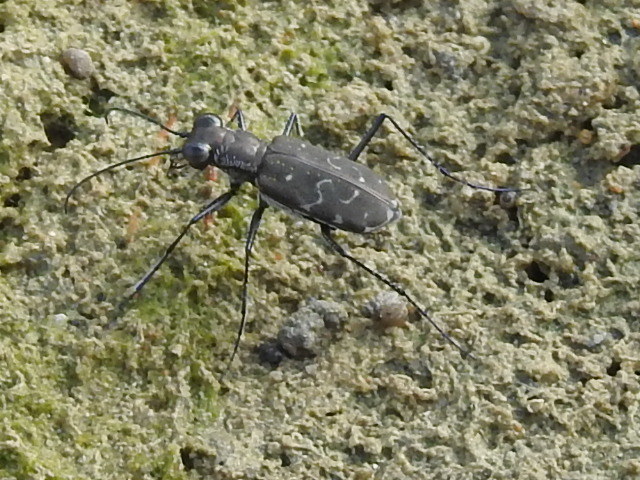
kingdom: Animalia
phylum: Arthropoda
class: Insecta
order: Coleoptera
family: Carabidae
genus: Cicindela
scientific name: Cicindela trifasciata
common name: Mudflat tiger beetle
